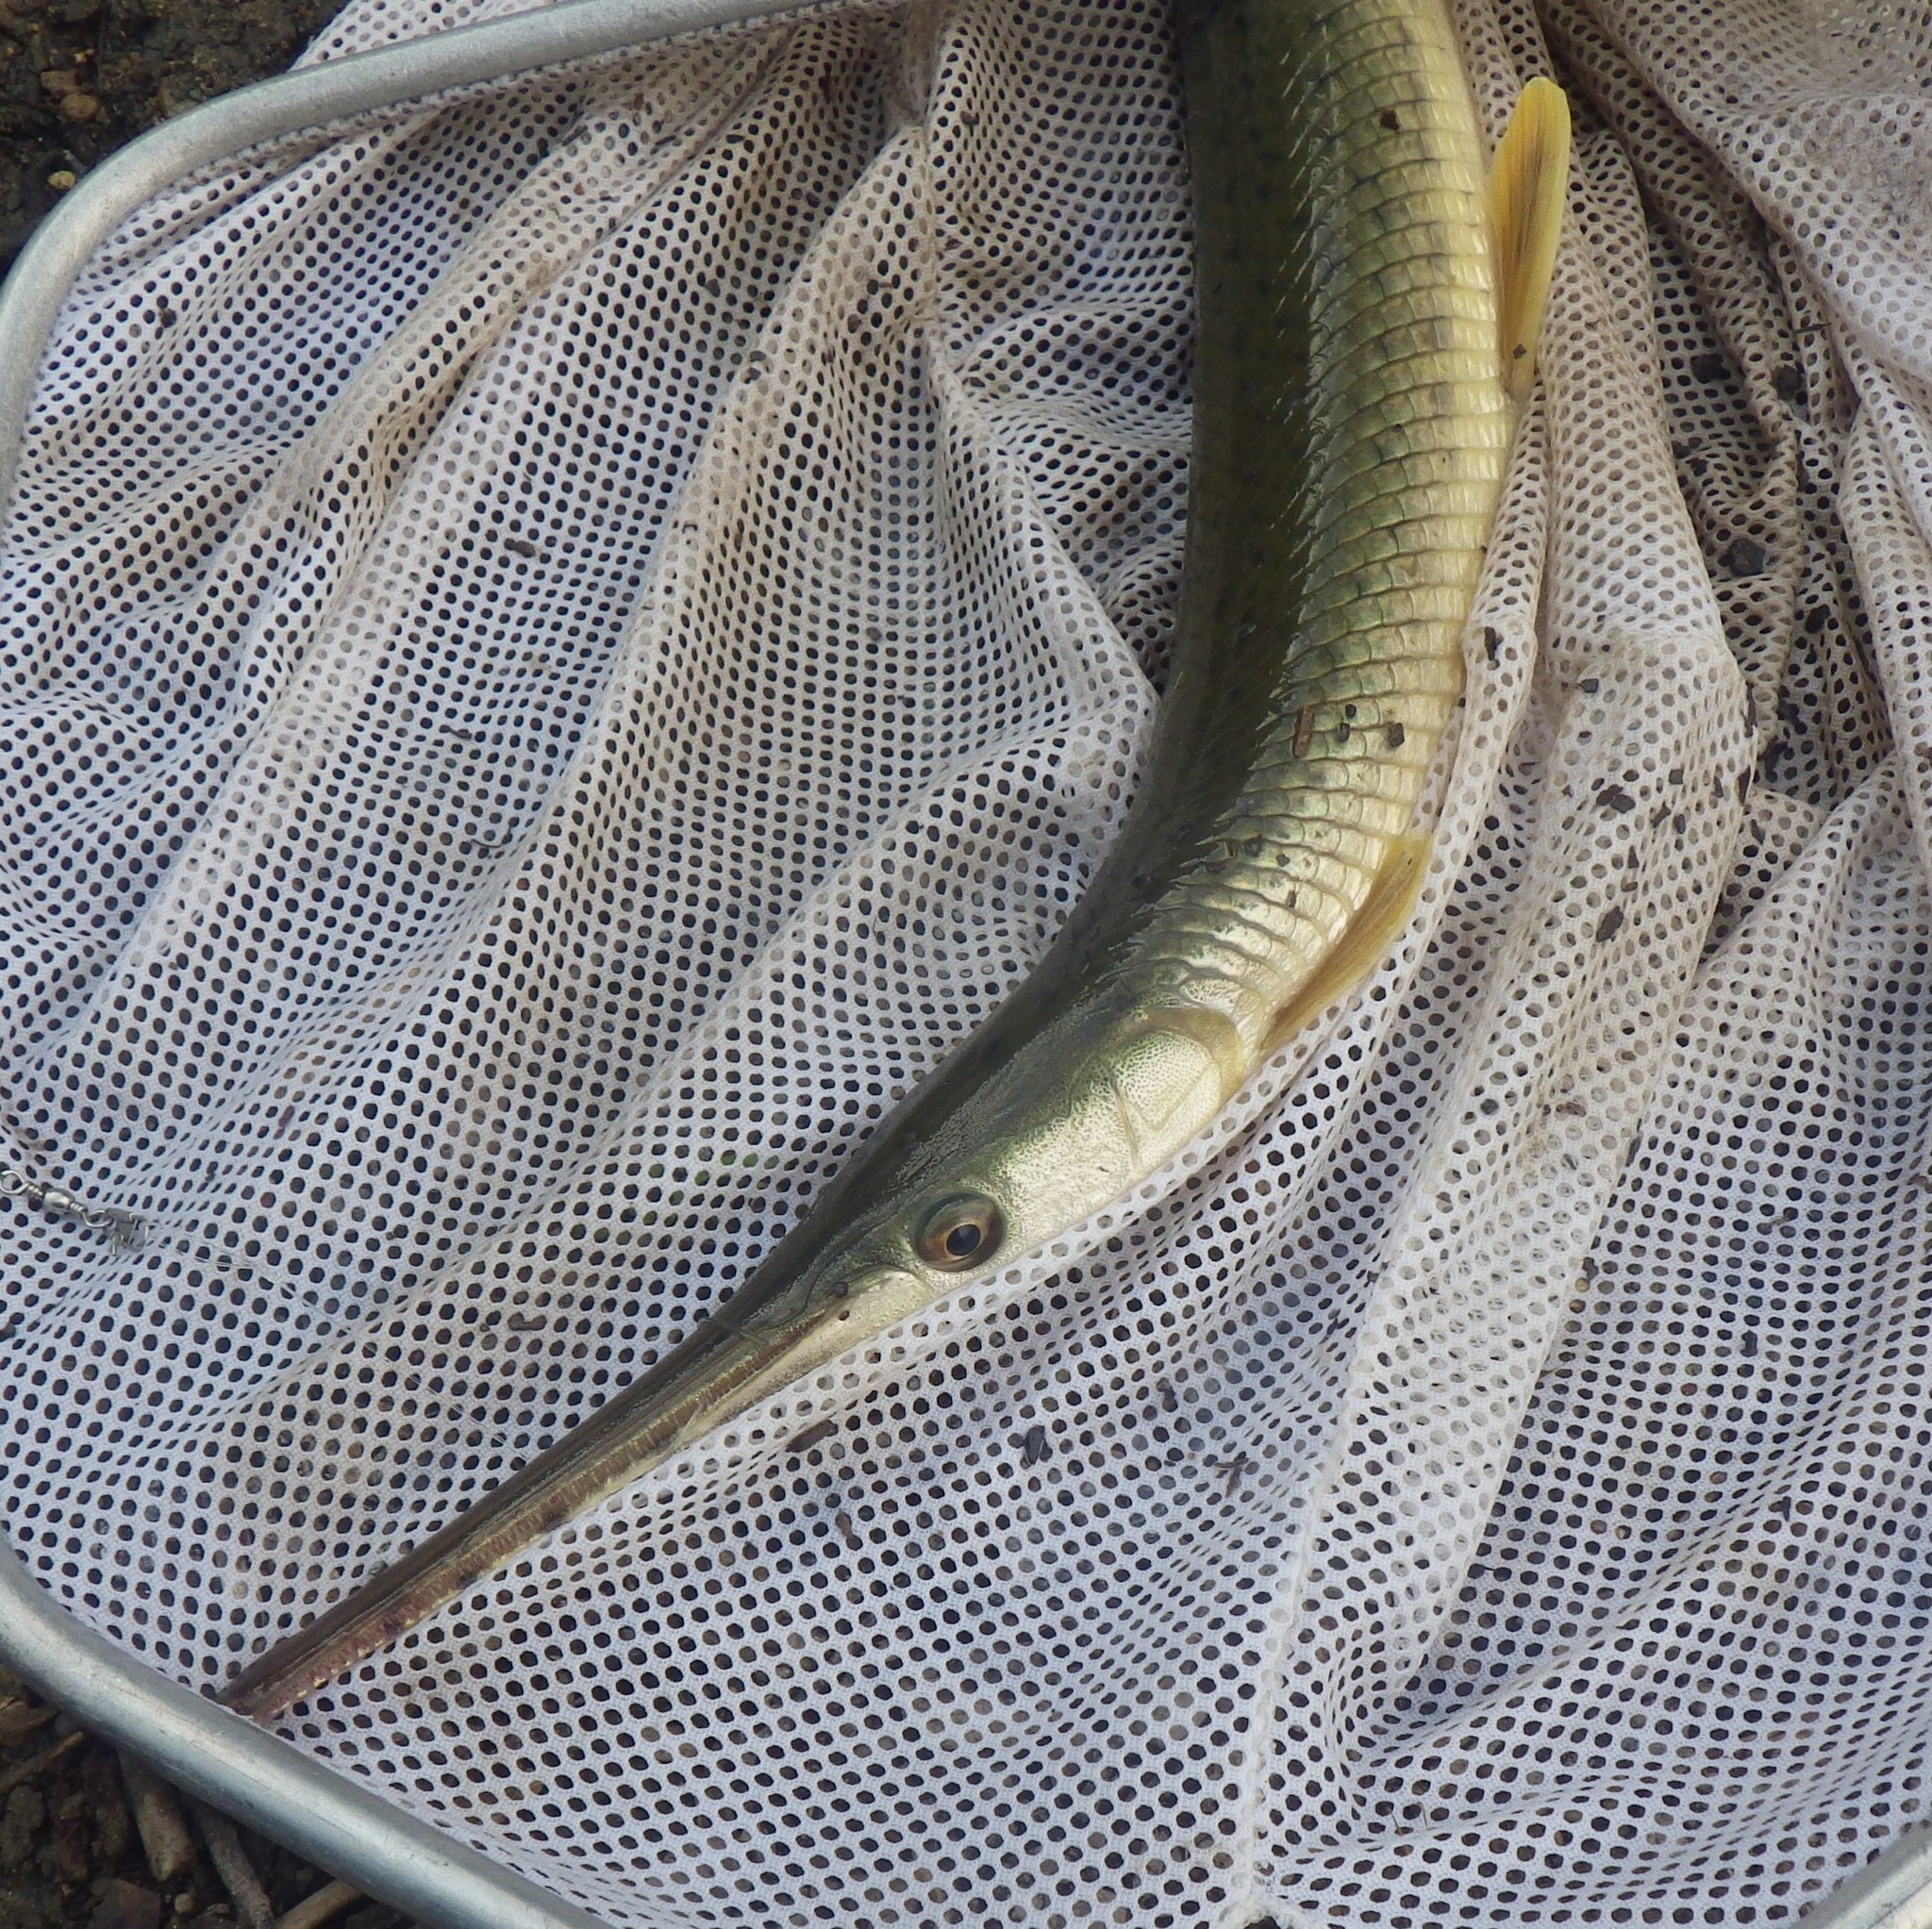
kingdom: Animalia
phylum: Chordata
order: Lepisosteiformes
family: Lepisosteidae
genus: Lepisosteus
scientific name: Lepisosteus osseus
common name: Longnose gar
